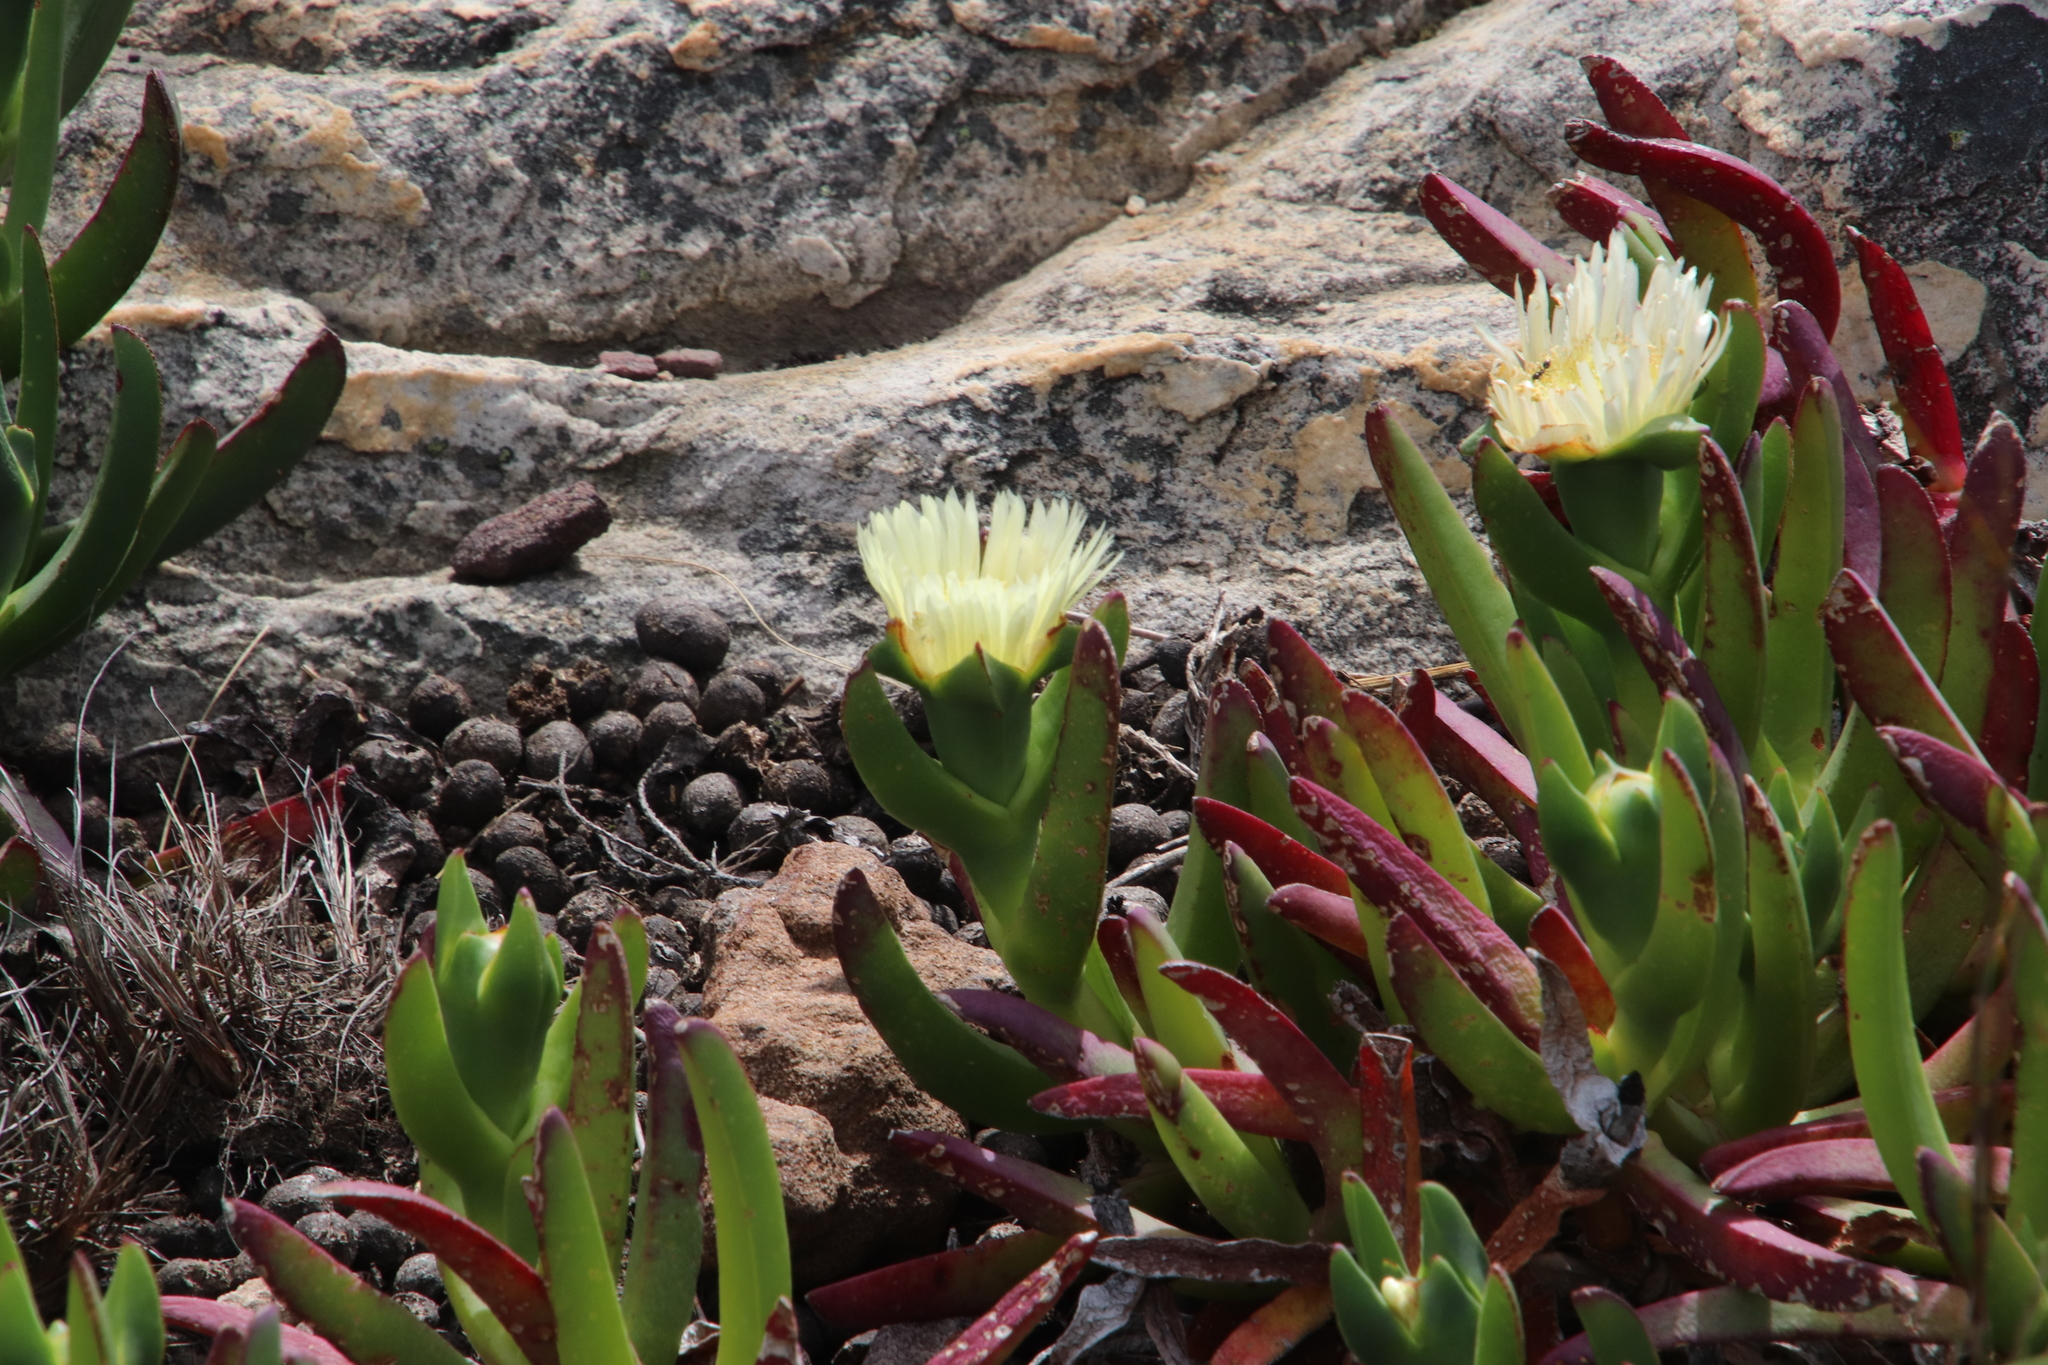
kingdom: Animalia
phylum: Chordata
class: Mammalia
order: Lagomorpha
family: Leporidae
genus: Pronolagus
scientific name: Pronolagus saundersiae
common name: Hewitt's red rock hare
